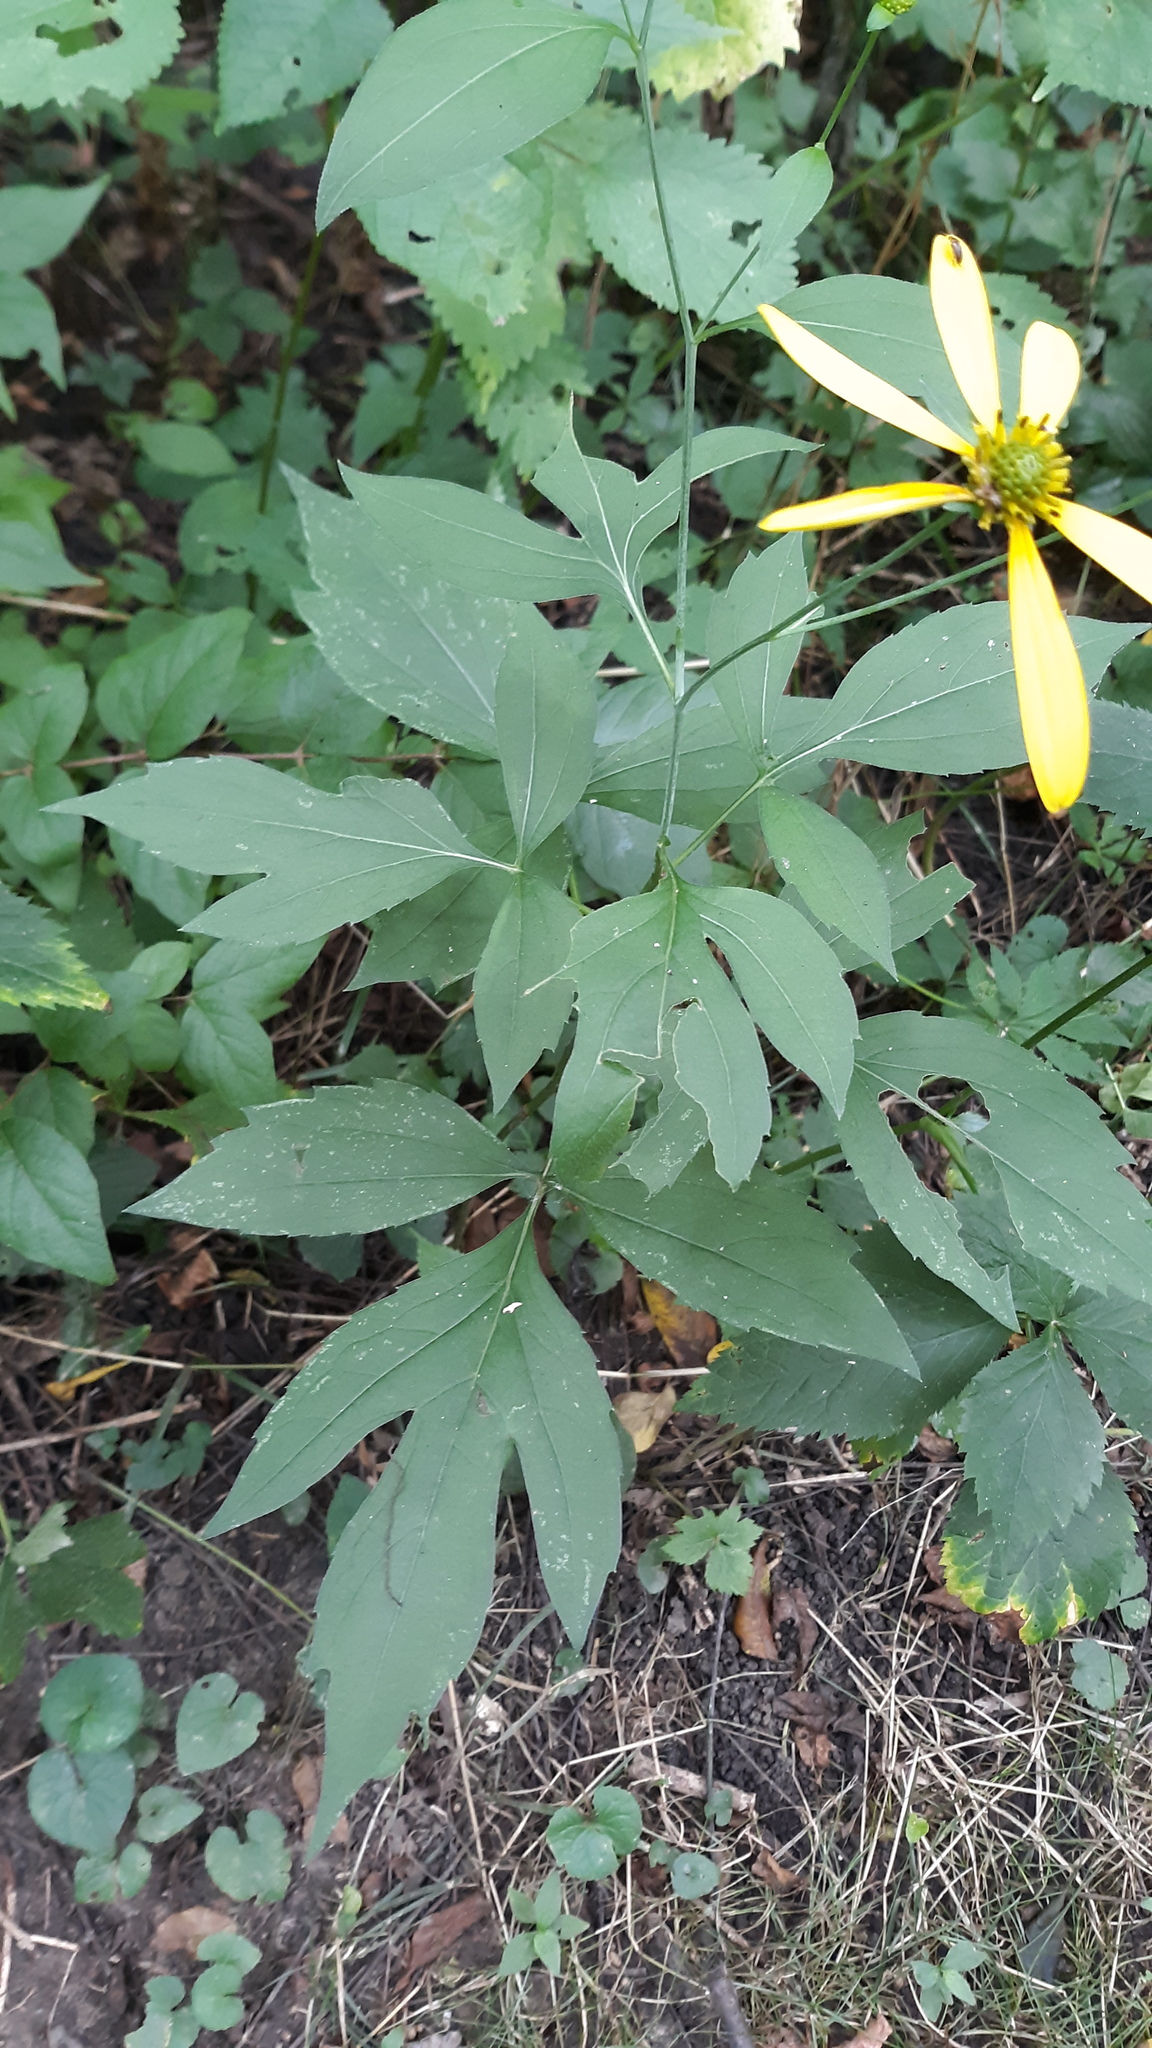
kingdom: Plantae
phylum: Tracheophyta
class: Magnoliopsida
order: Asterales
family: Asteraceae
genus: Rudbeckia
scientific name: Rudbeckia laciniata
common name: Coneflower
